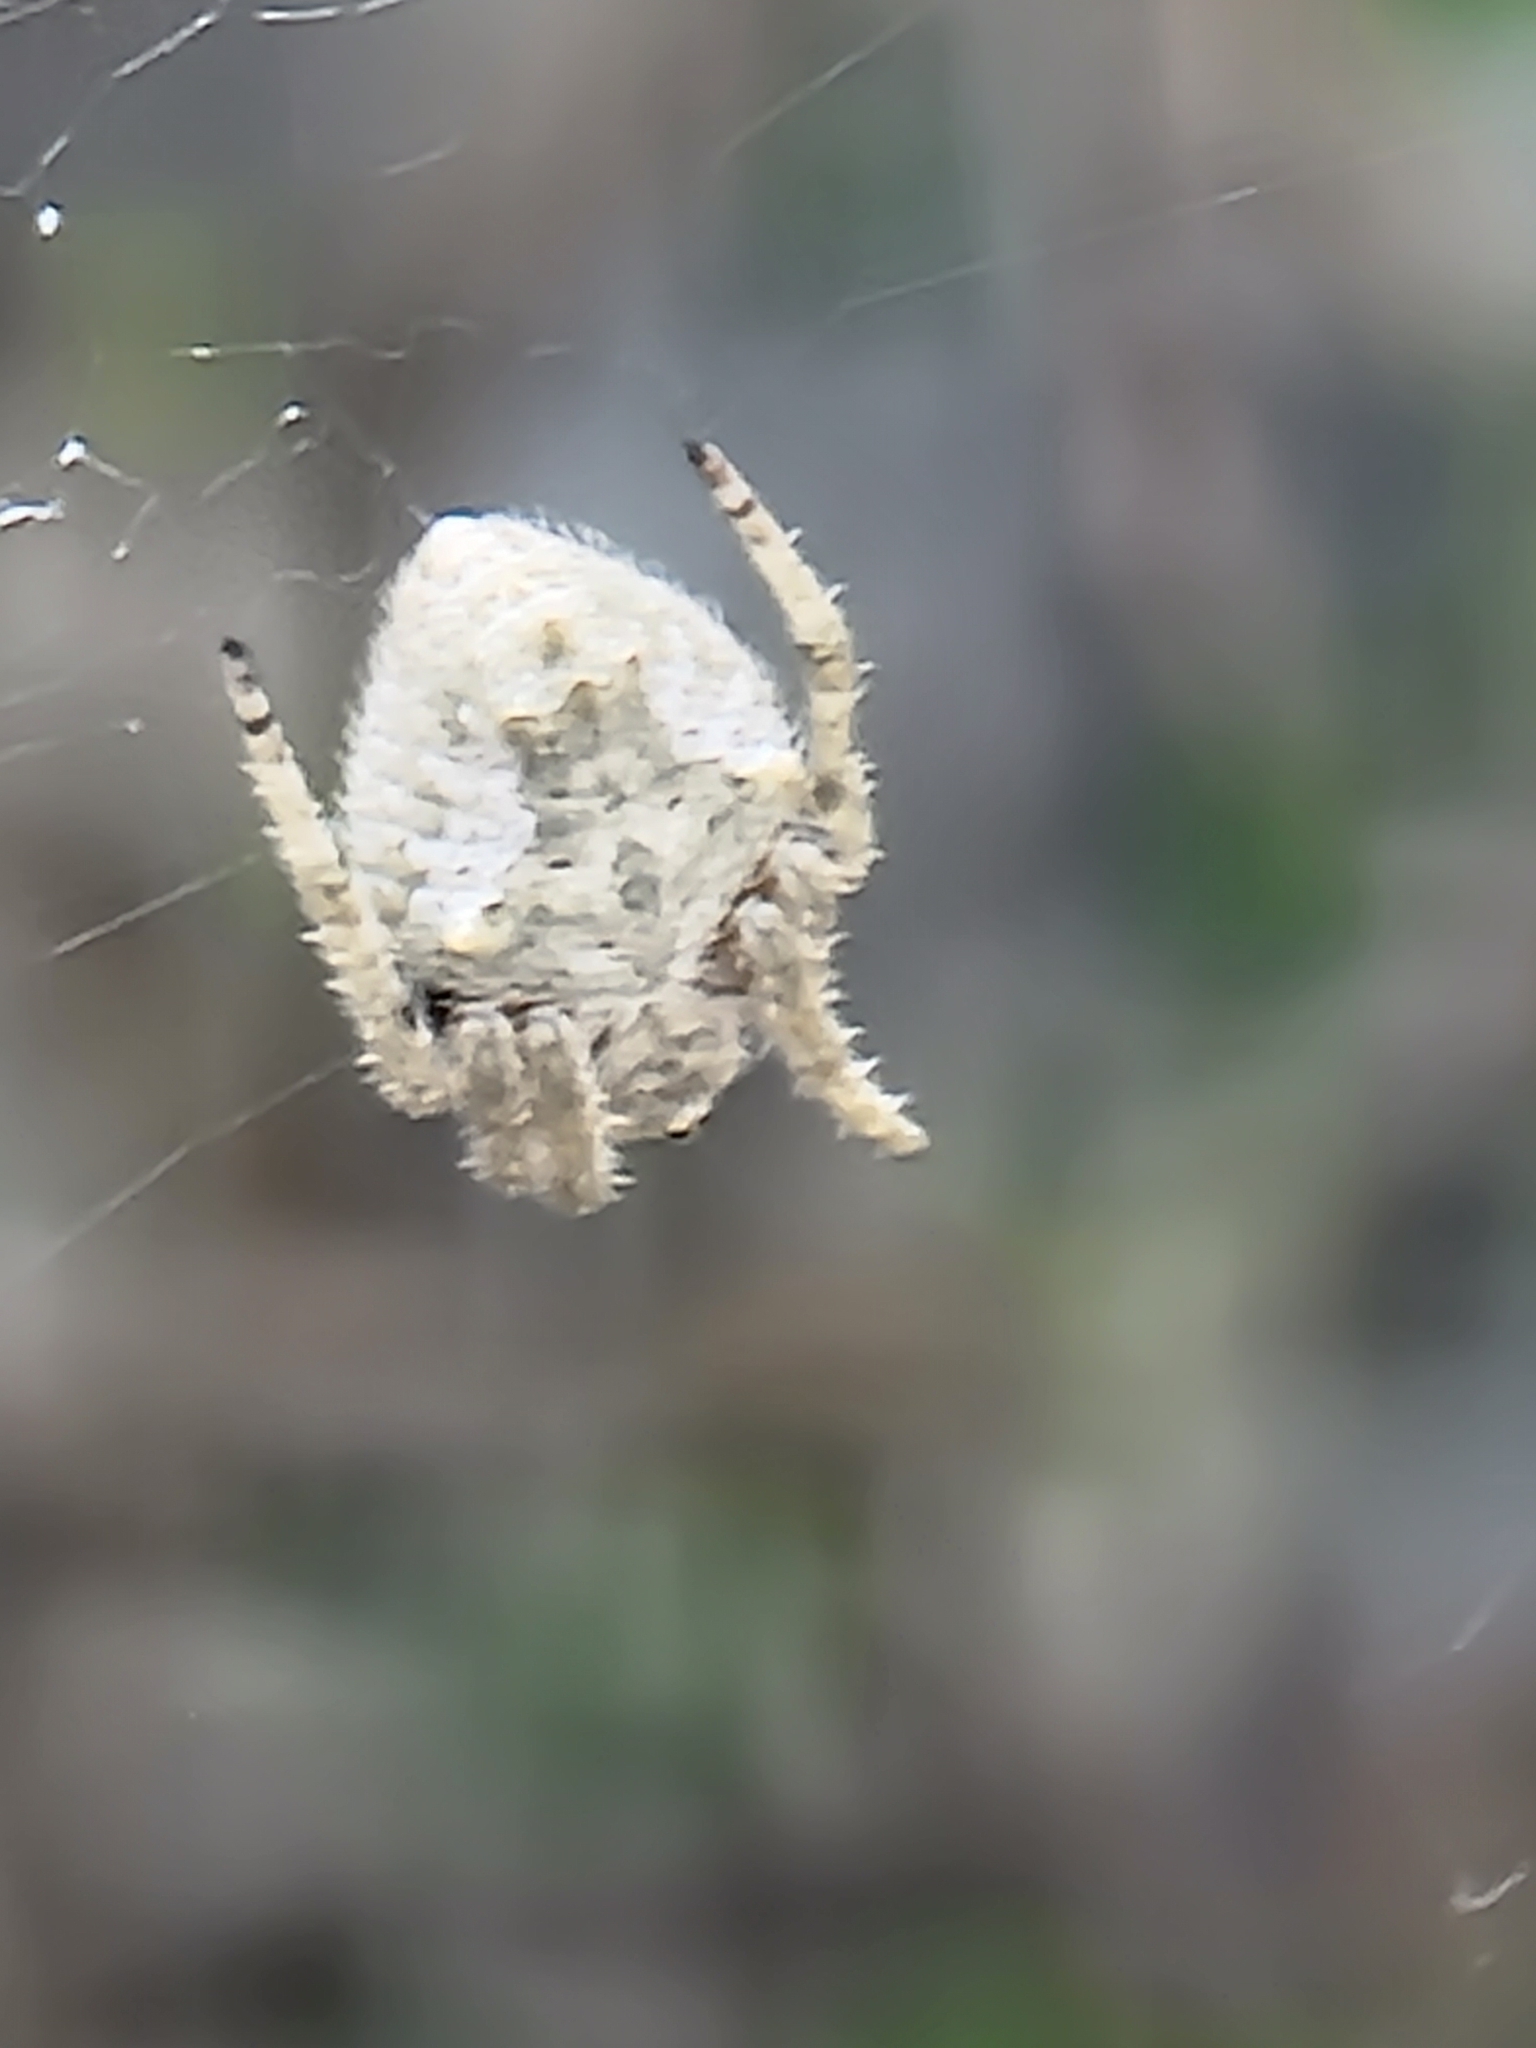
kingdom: Animalia
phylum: Arthropoda
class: Arachnida
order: Araneae
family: Araneidae
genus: Eriophora
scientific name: Eriophora pustulosa
